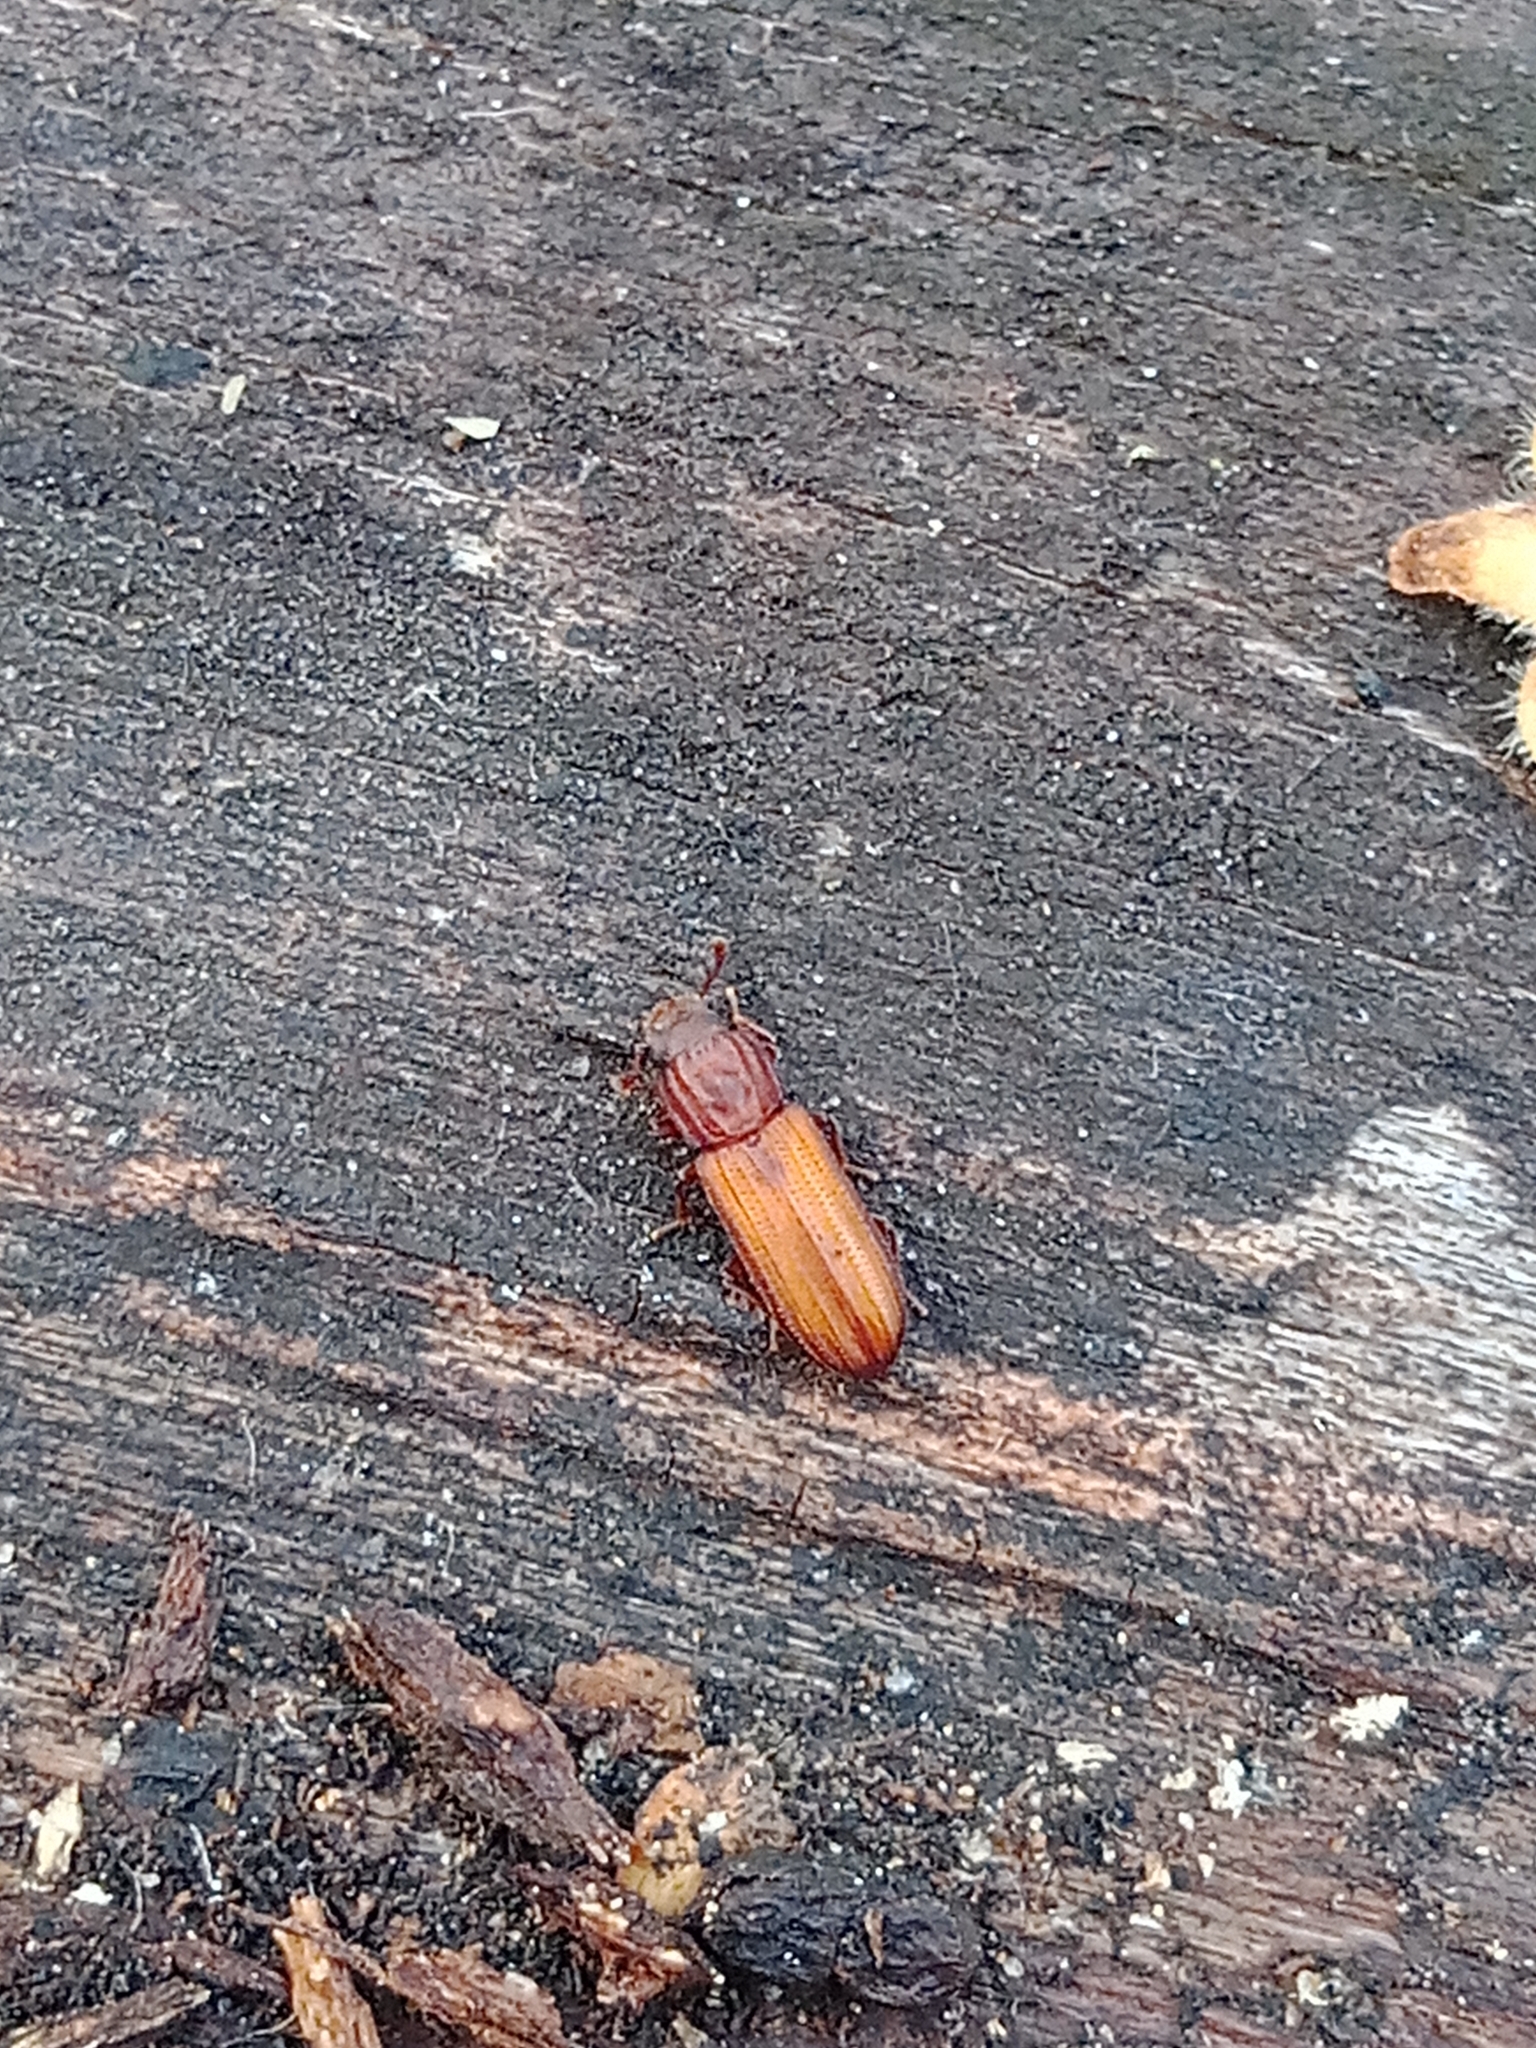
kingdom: Animalia
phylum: Arthropoda
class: Insecta
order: Coleoptera
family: Zopheridae
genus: Bitoma
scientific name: Bitoma crenata
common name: Bark beetle
